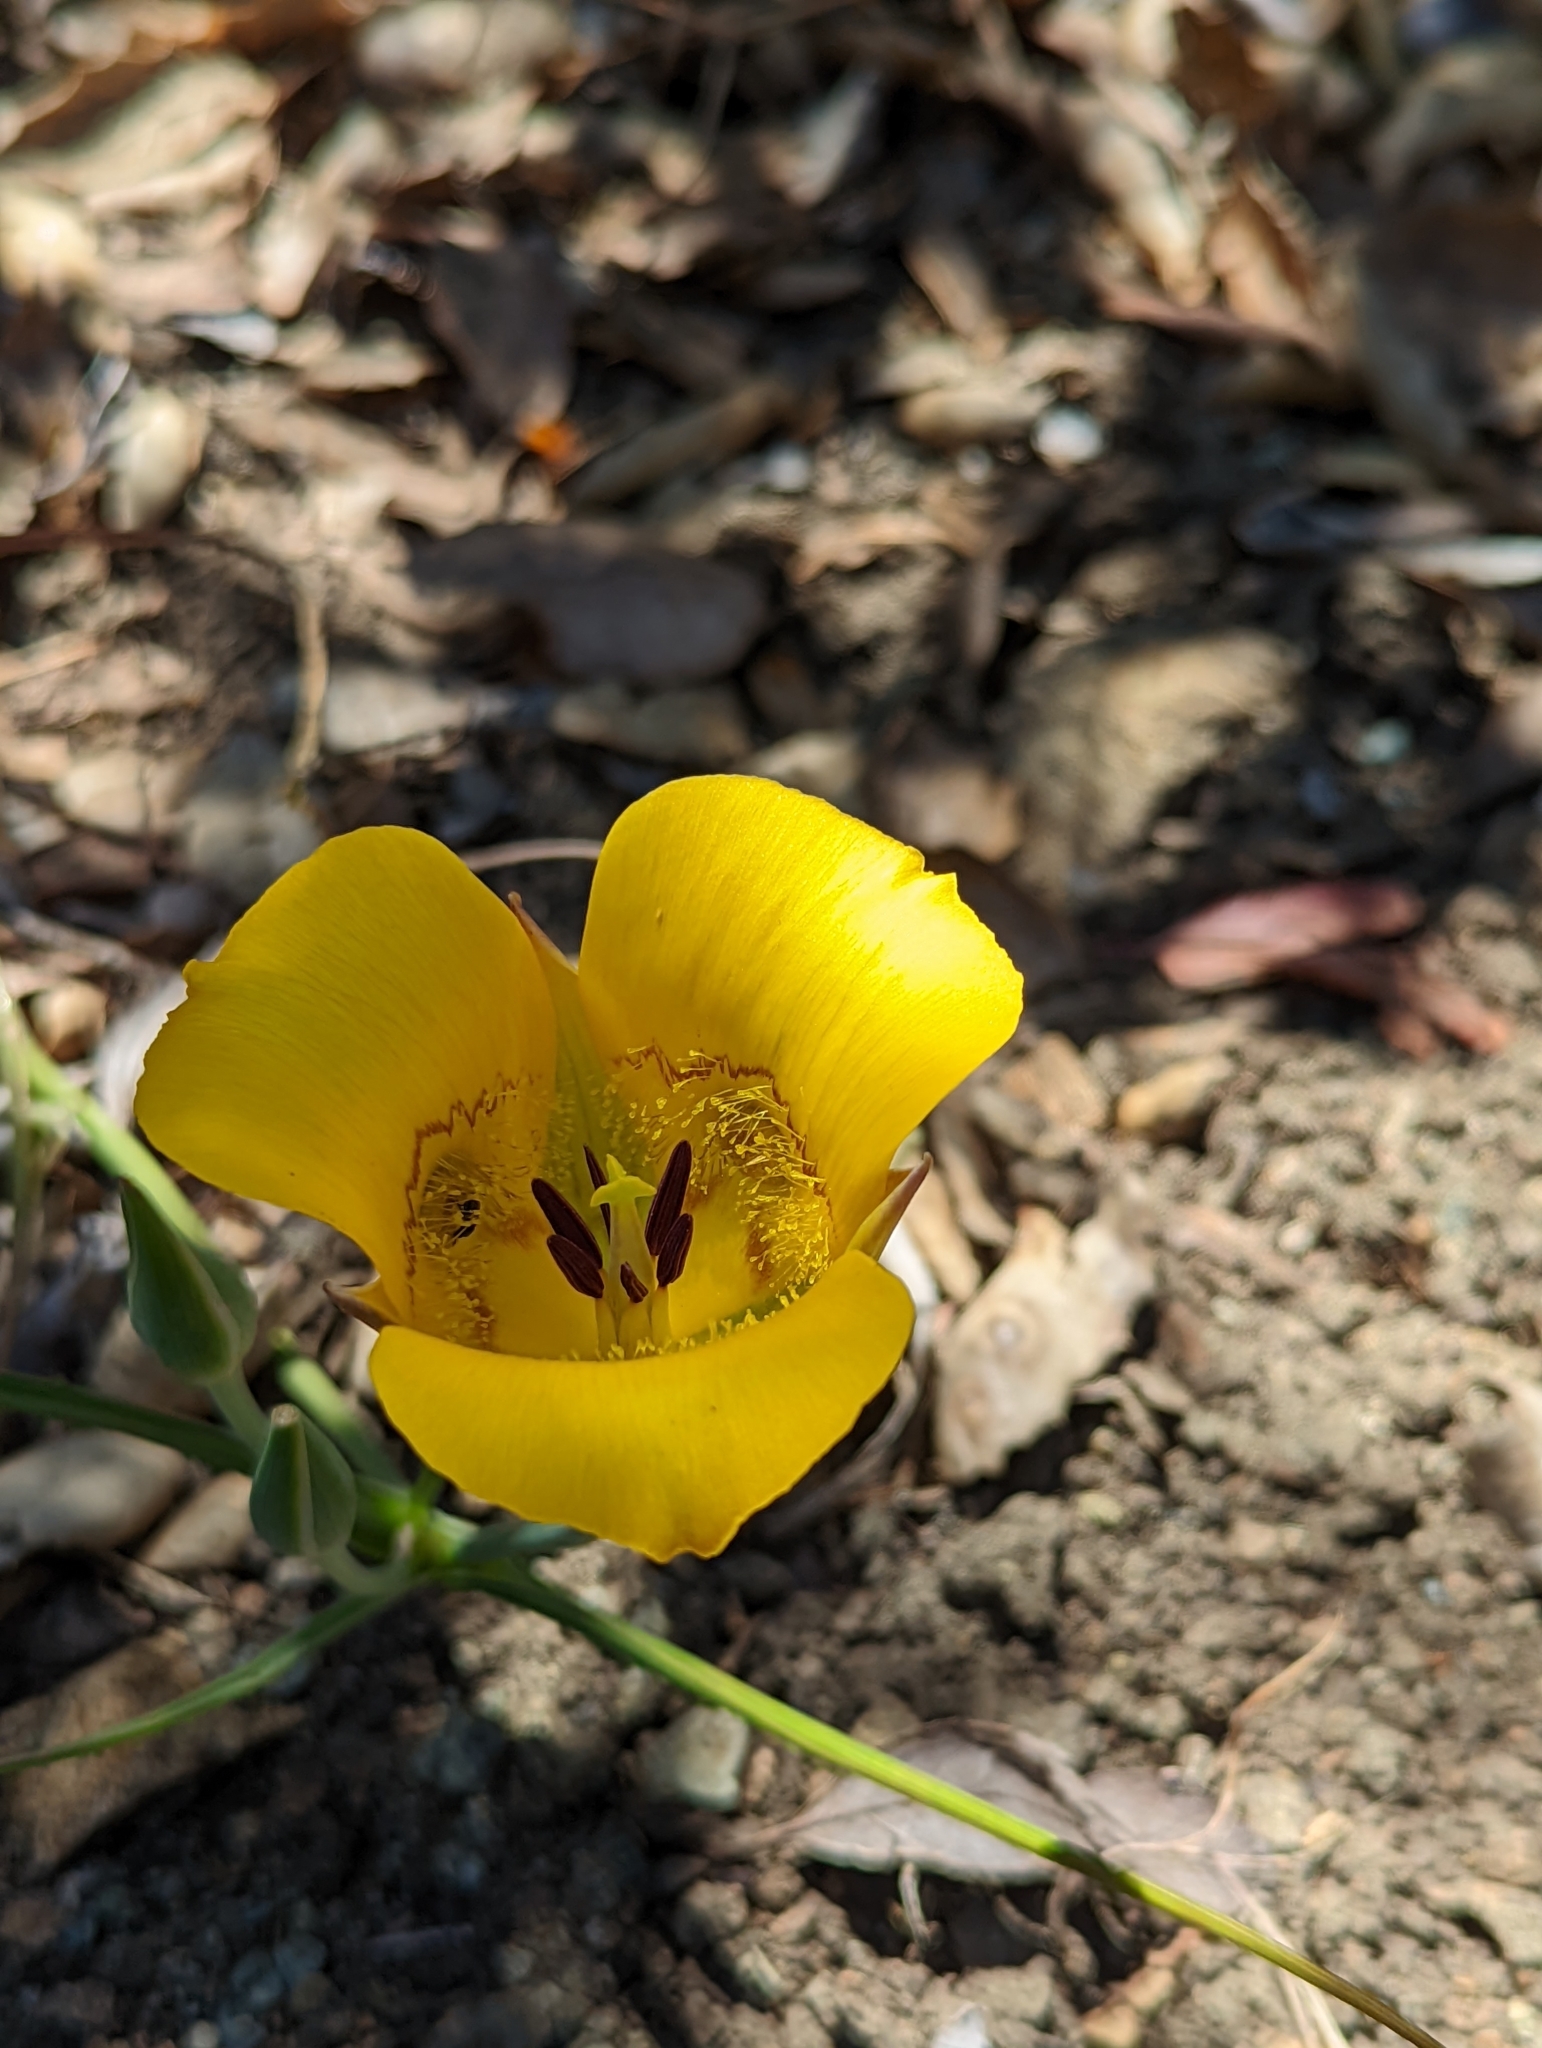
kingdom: Plantae
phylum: Tracheophyta
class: Liliopsida
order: Liliales
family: Liliaceae
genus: Calochortus
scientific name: Calochortus clavatus
